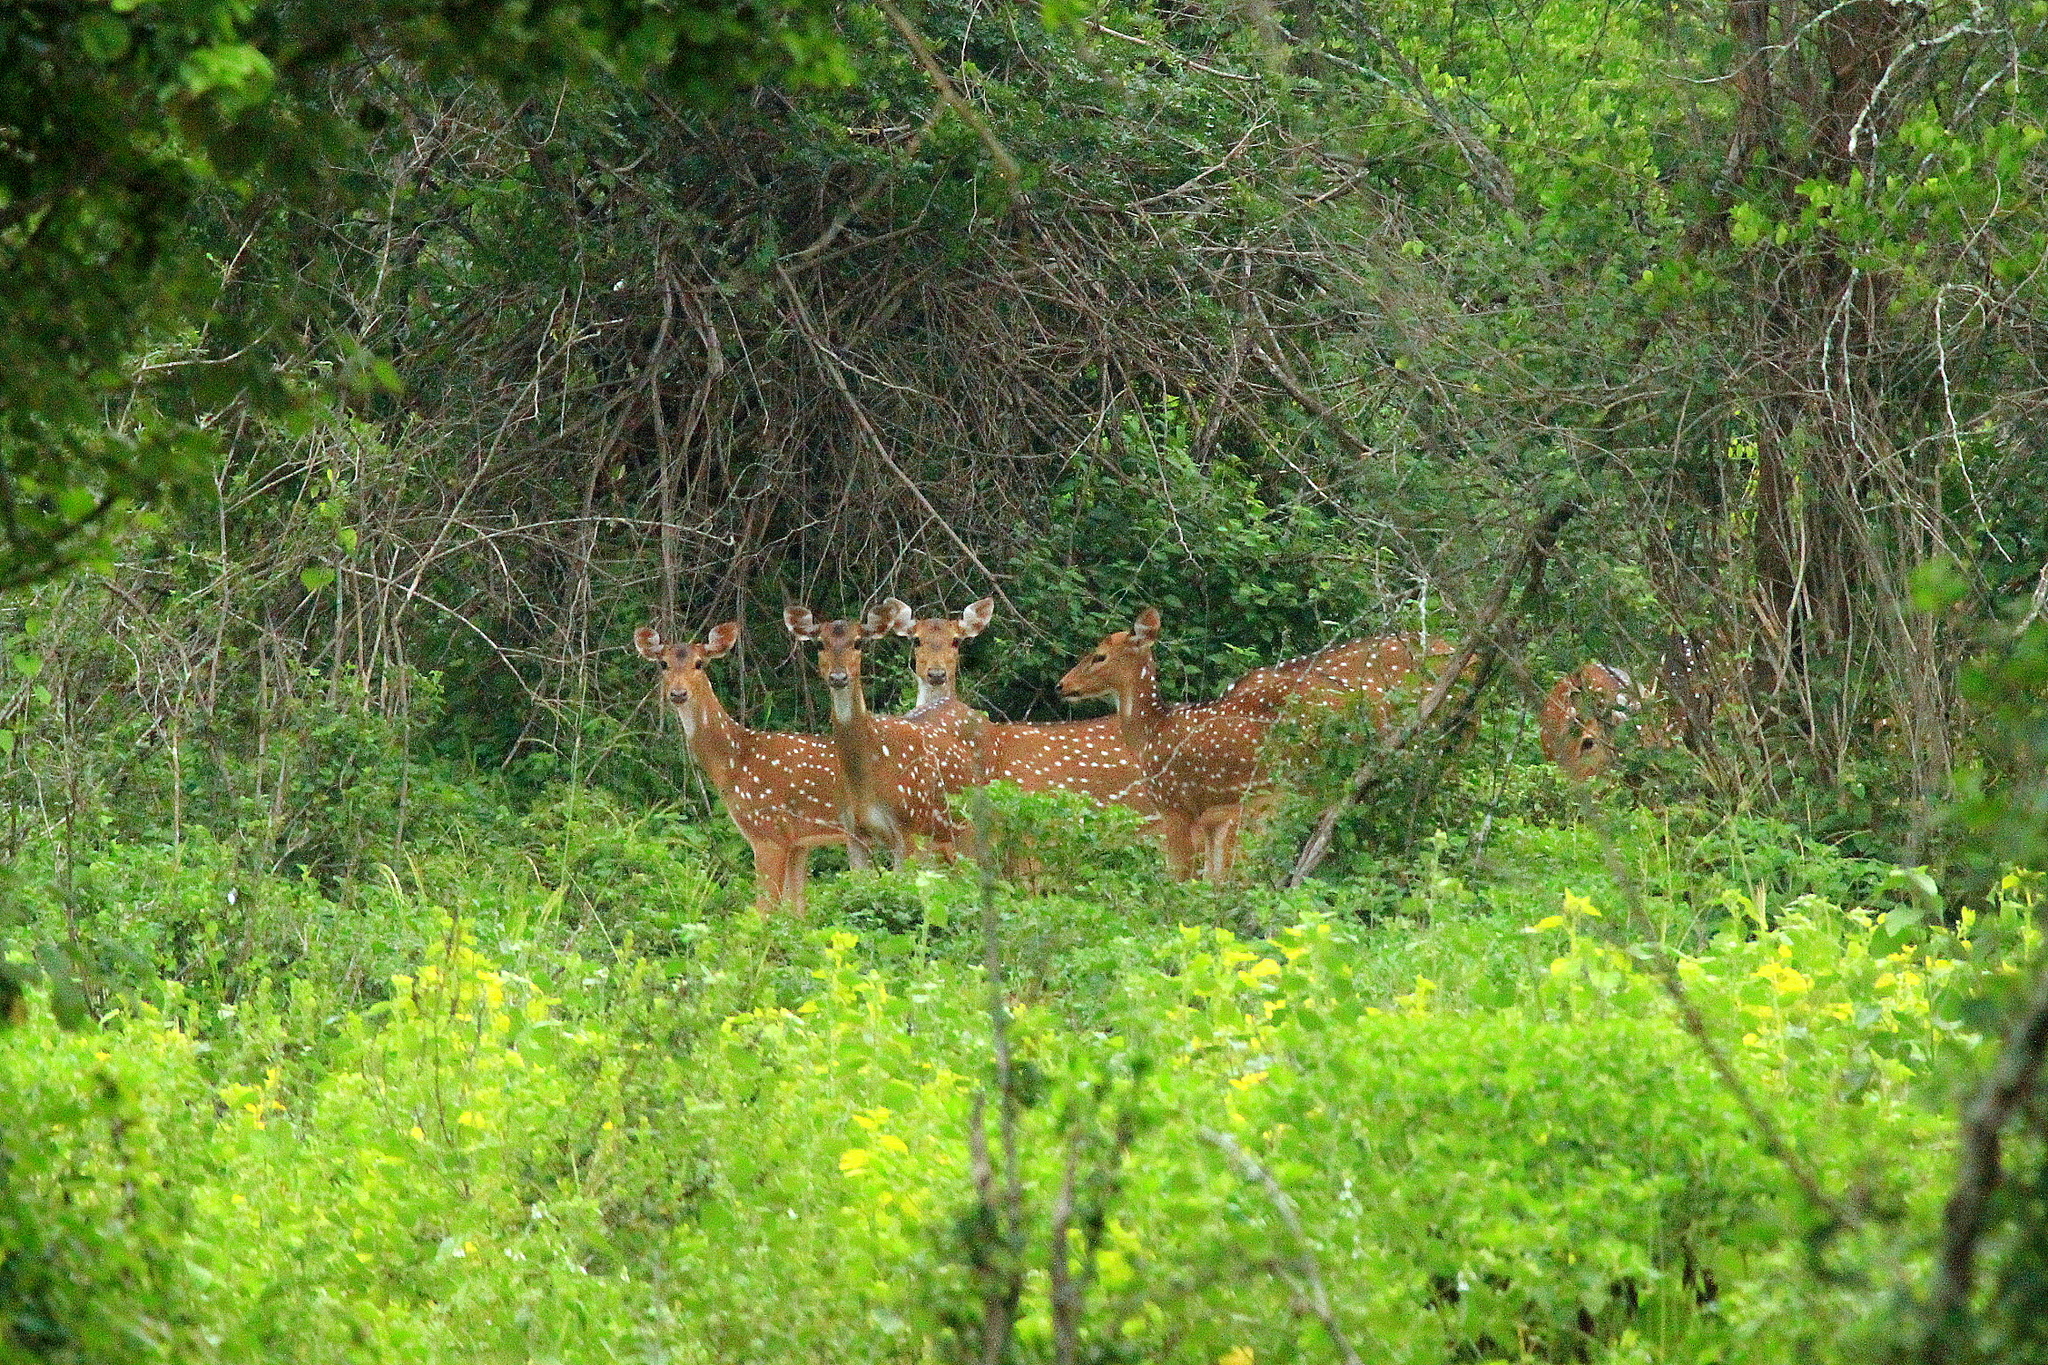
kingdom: Animalia
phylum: Chordata
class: Mammalia
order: Artiodactyla
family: Cervidae
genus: Axis
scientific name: Axis axis
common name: Chital
